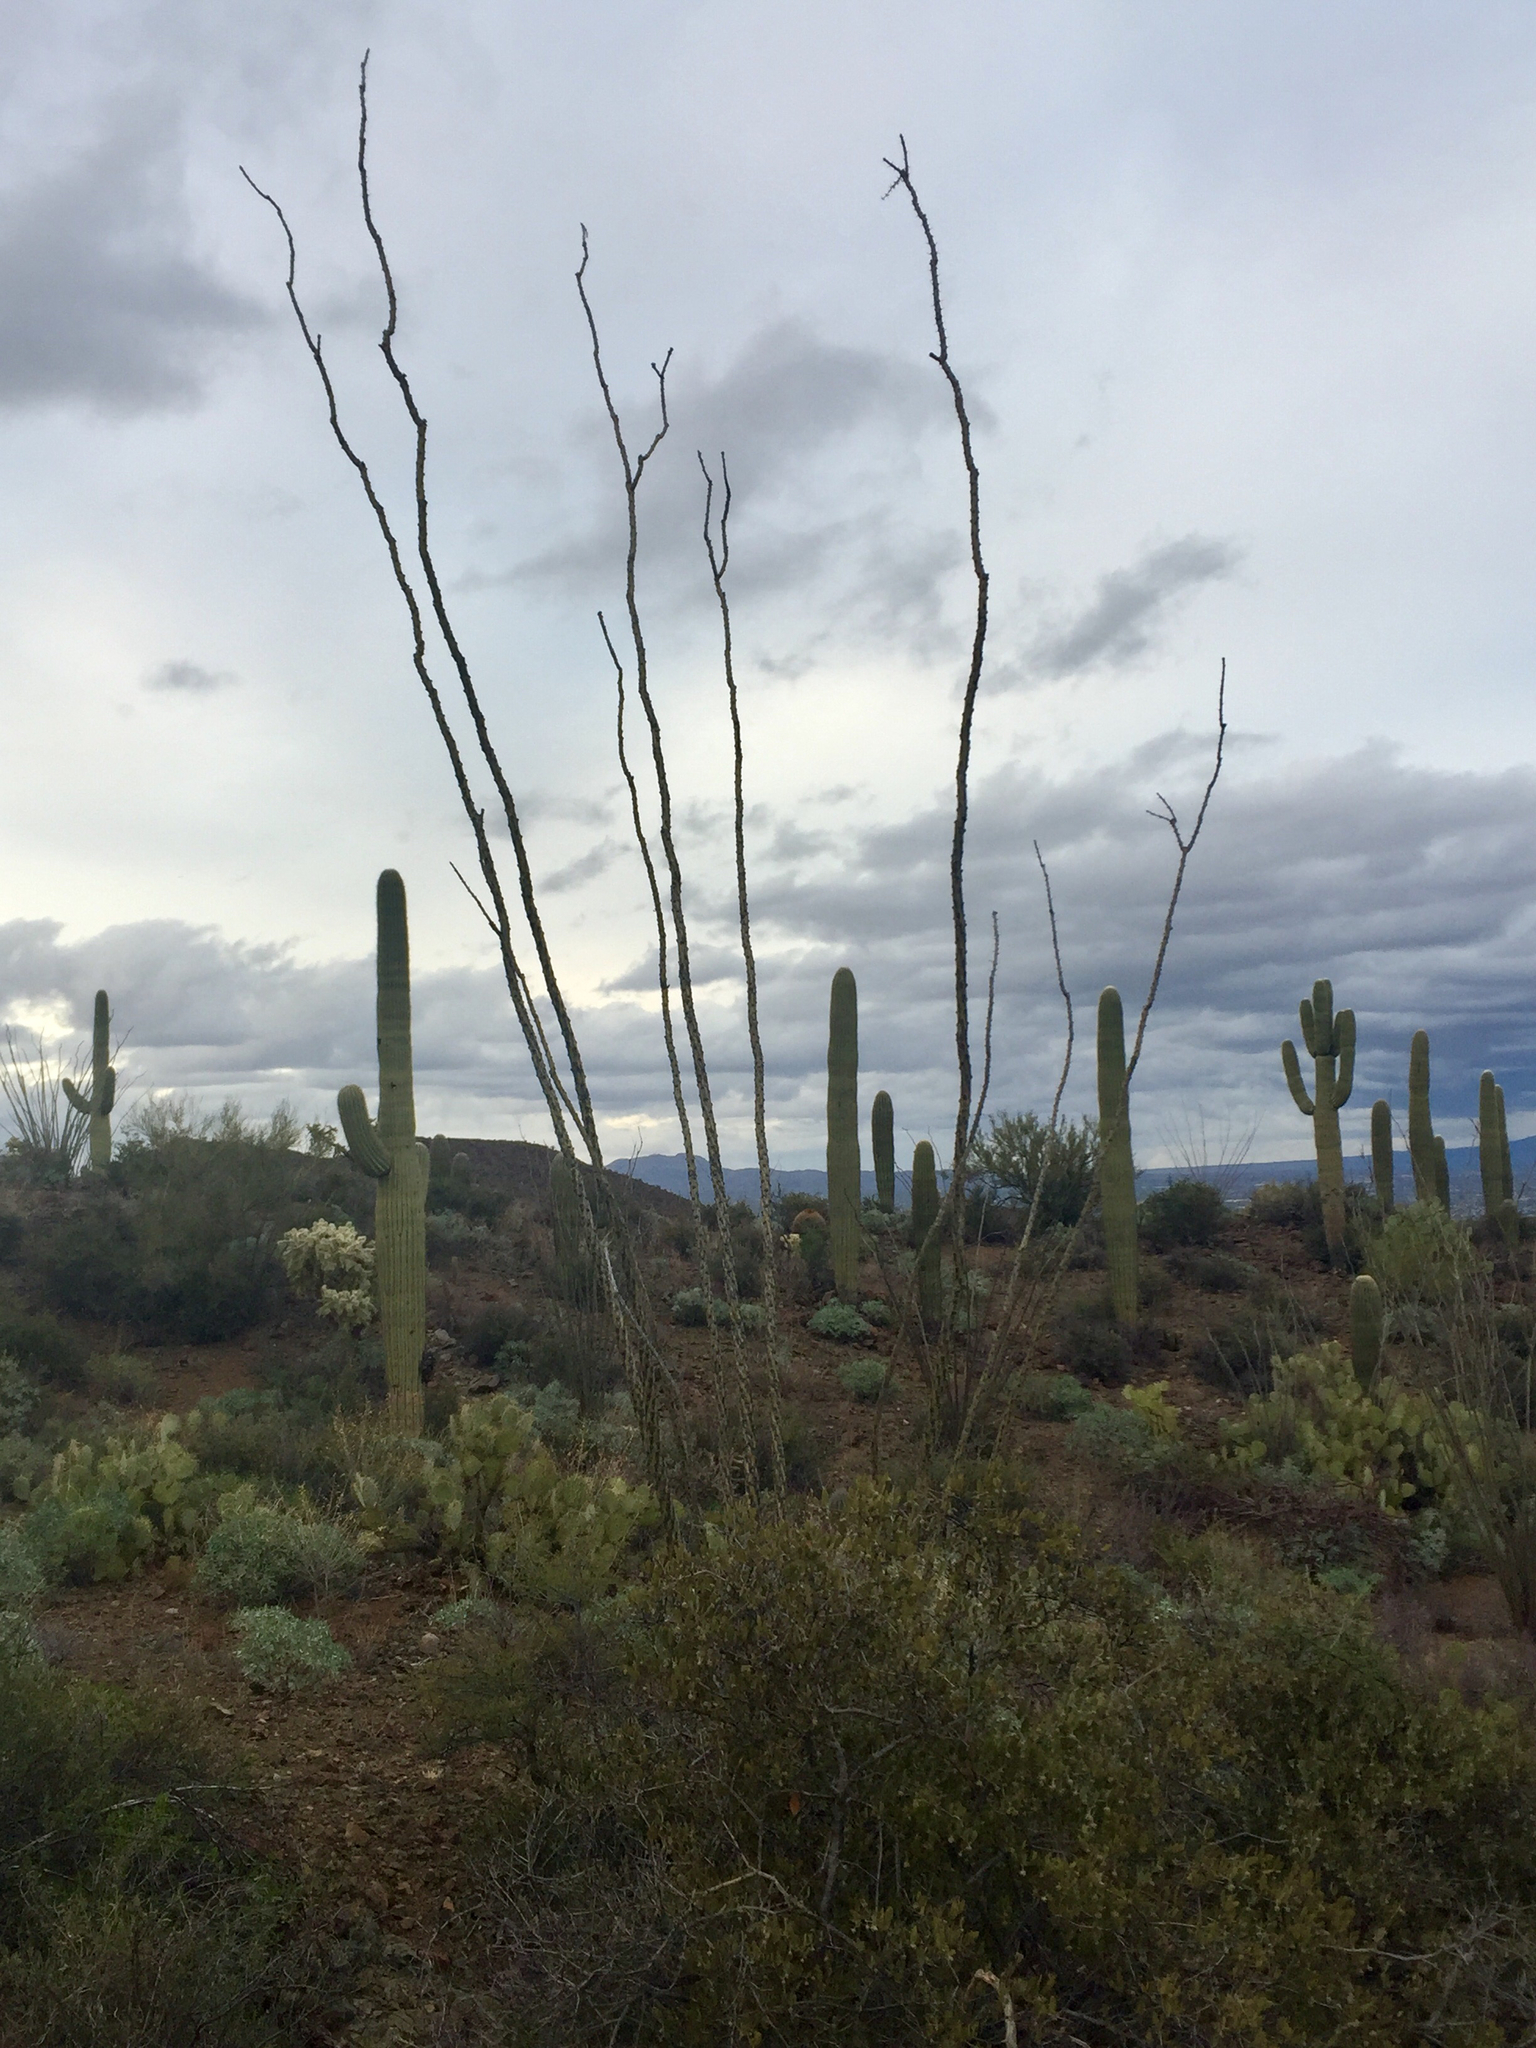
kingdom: Plantae
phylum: Tracheophyta
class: Magnoliopsida
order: Ericales
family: Fouquieriaceae
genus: Fouquieria
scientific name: Fouquieria splendens
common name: Vine-cactus
